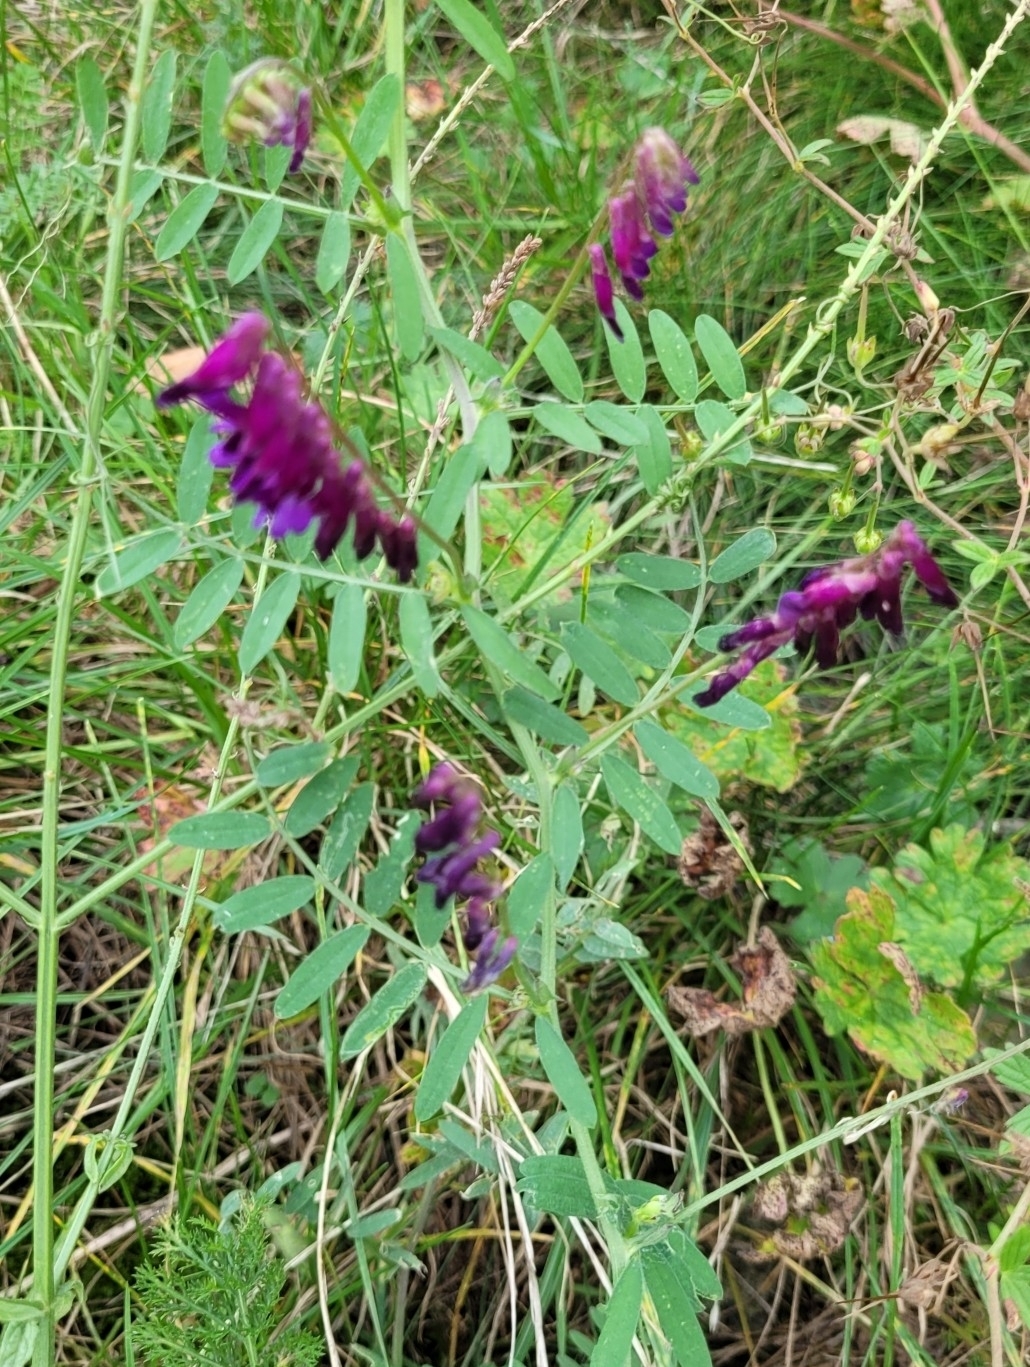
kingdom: Plantae
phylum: Tracheophyta
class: Magnoliopsida
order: Fabales
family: Fabaceae
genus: Vicia
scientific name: Vicia villosa
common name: Fodder vetch
